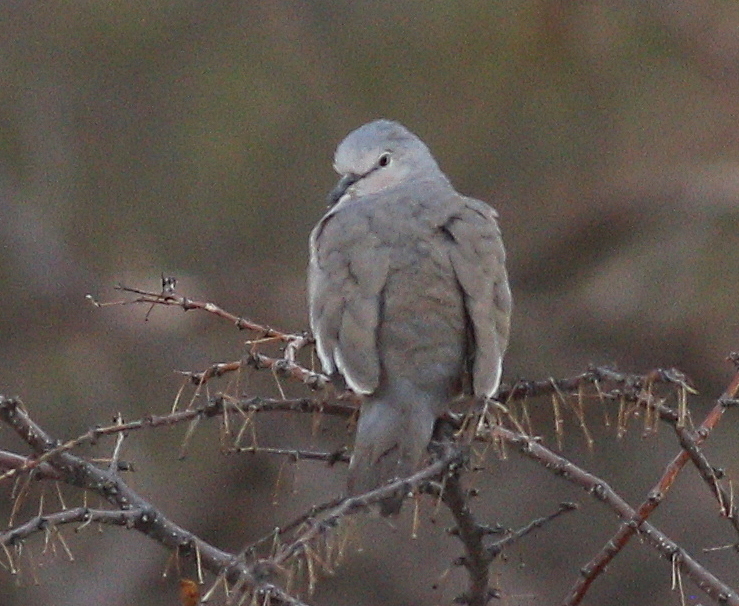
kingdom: Animalia
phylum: Chordata
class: Aves
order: Columbiformes
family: Columbidae
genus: Columbina
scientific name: Columbina picui
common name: Picui ground dove
